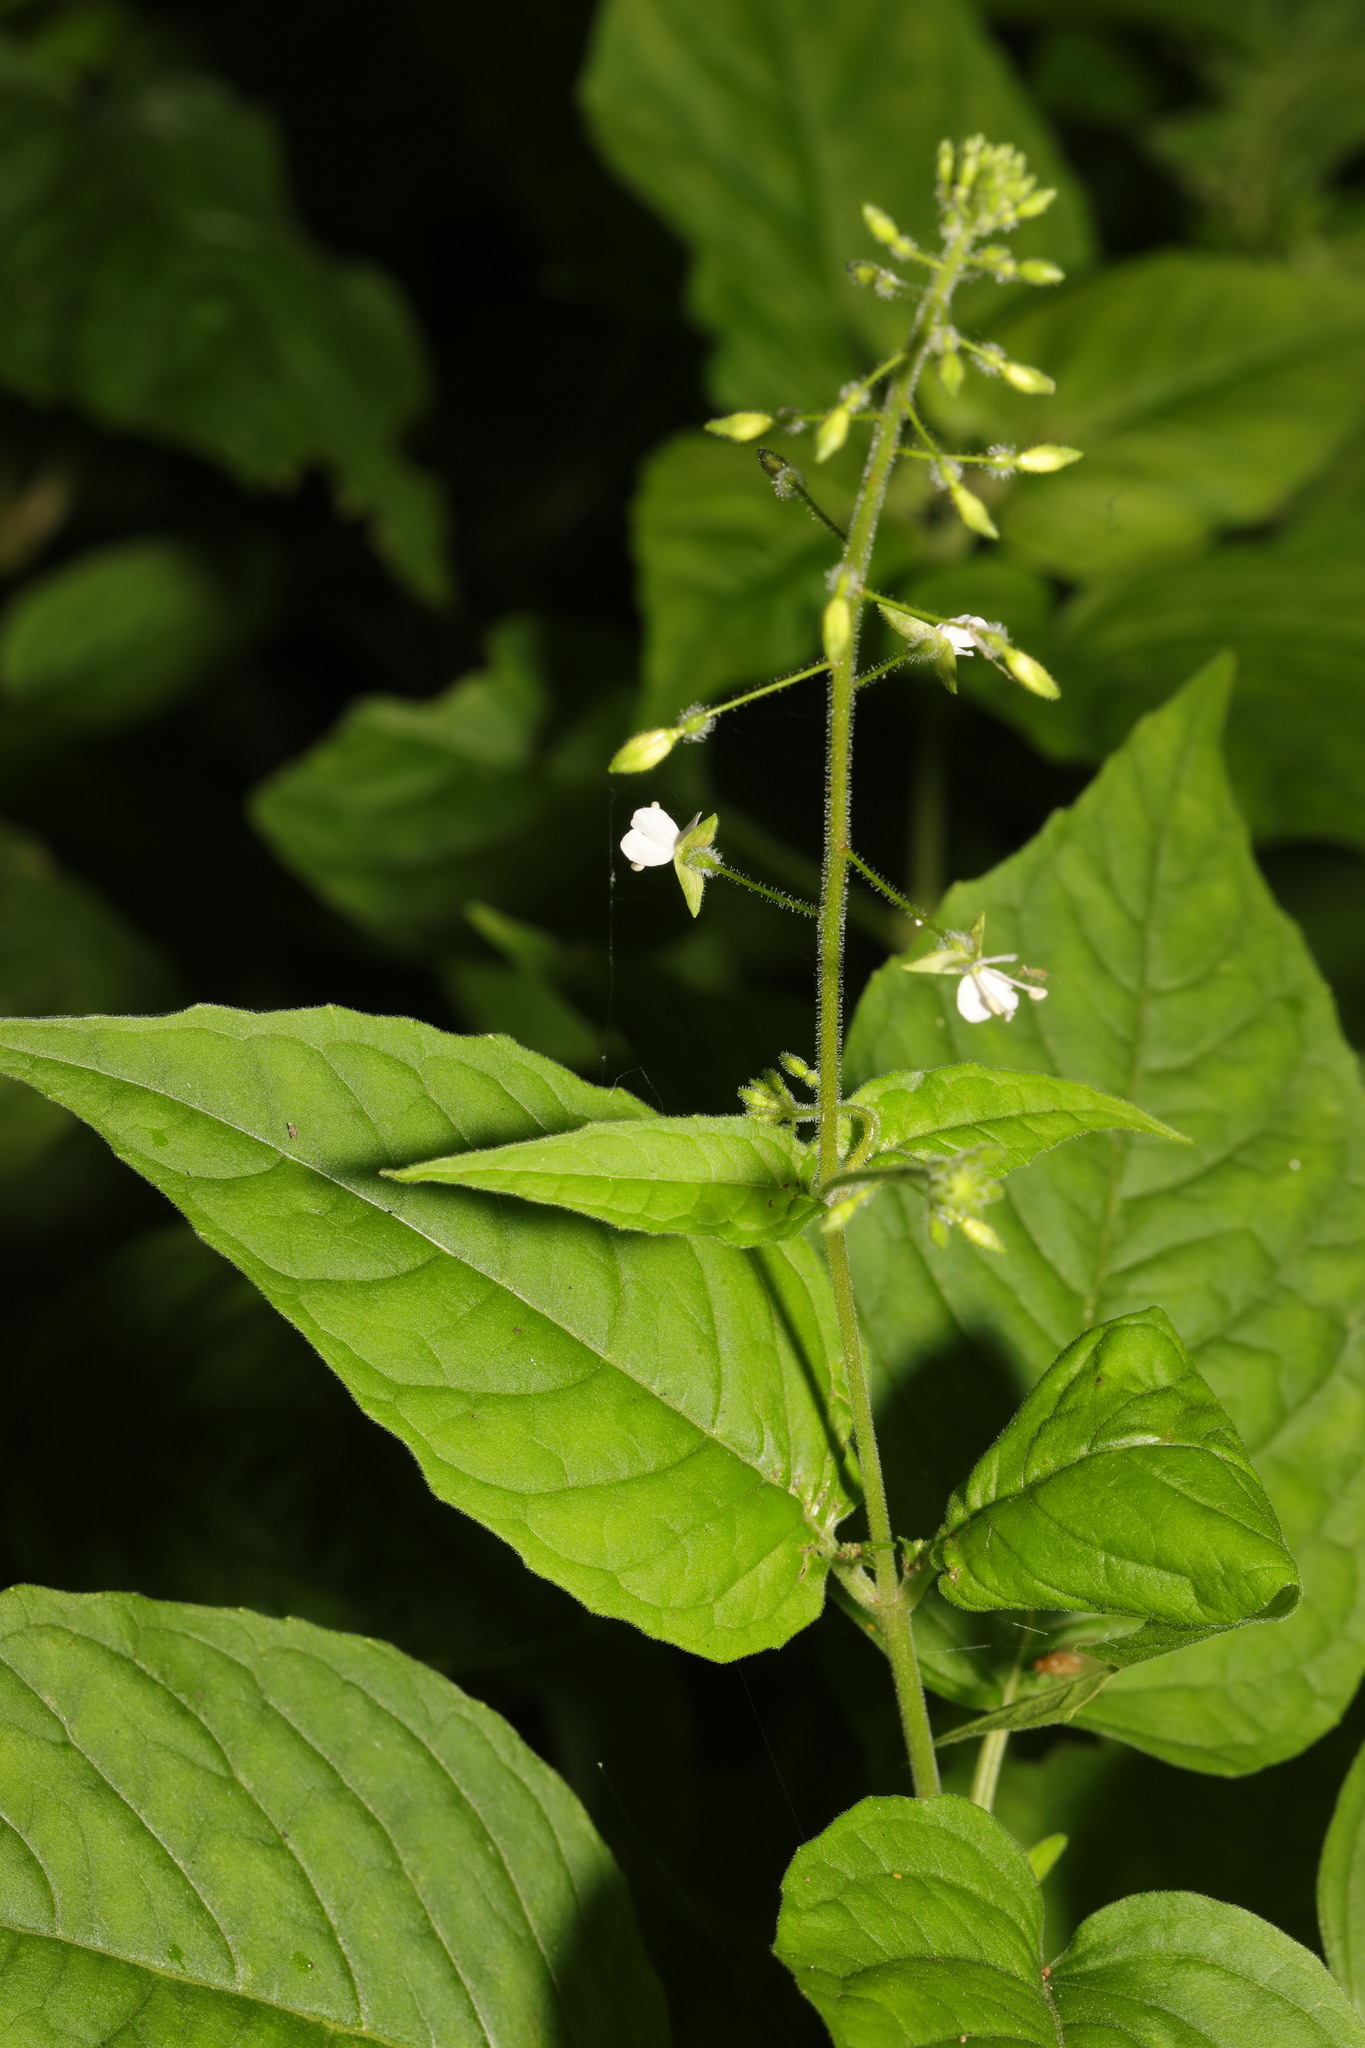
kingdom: Plantae
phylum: Tracheophyta
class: Magnoliopsida
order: Myrtales
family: Onagraceae
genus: Circaea
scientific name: Circaea lutetiana
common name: Enchanter's-nightshade
